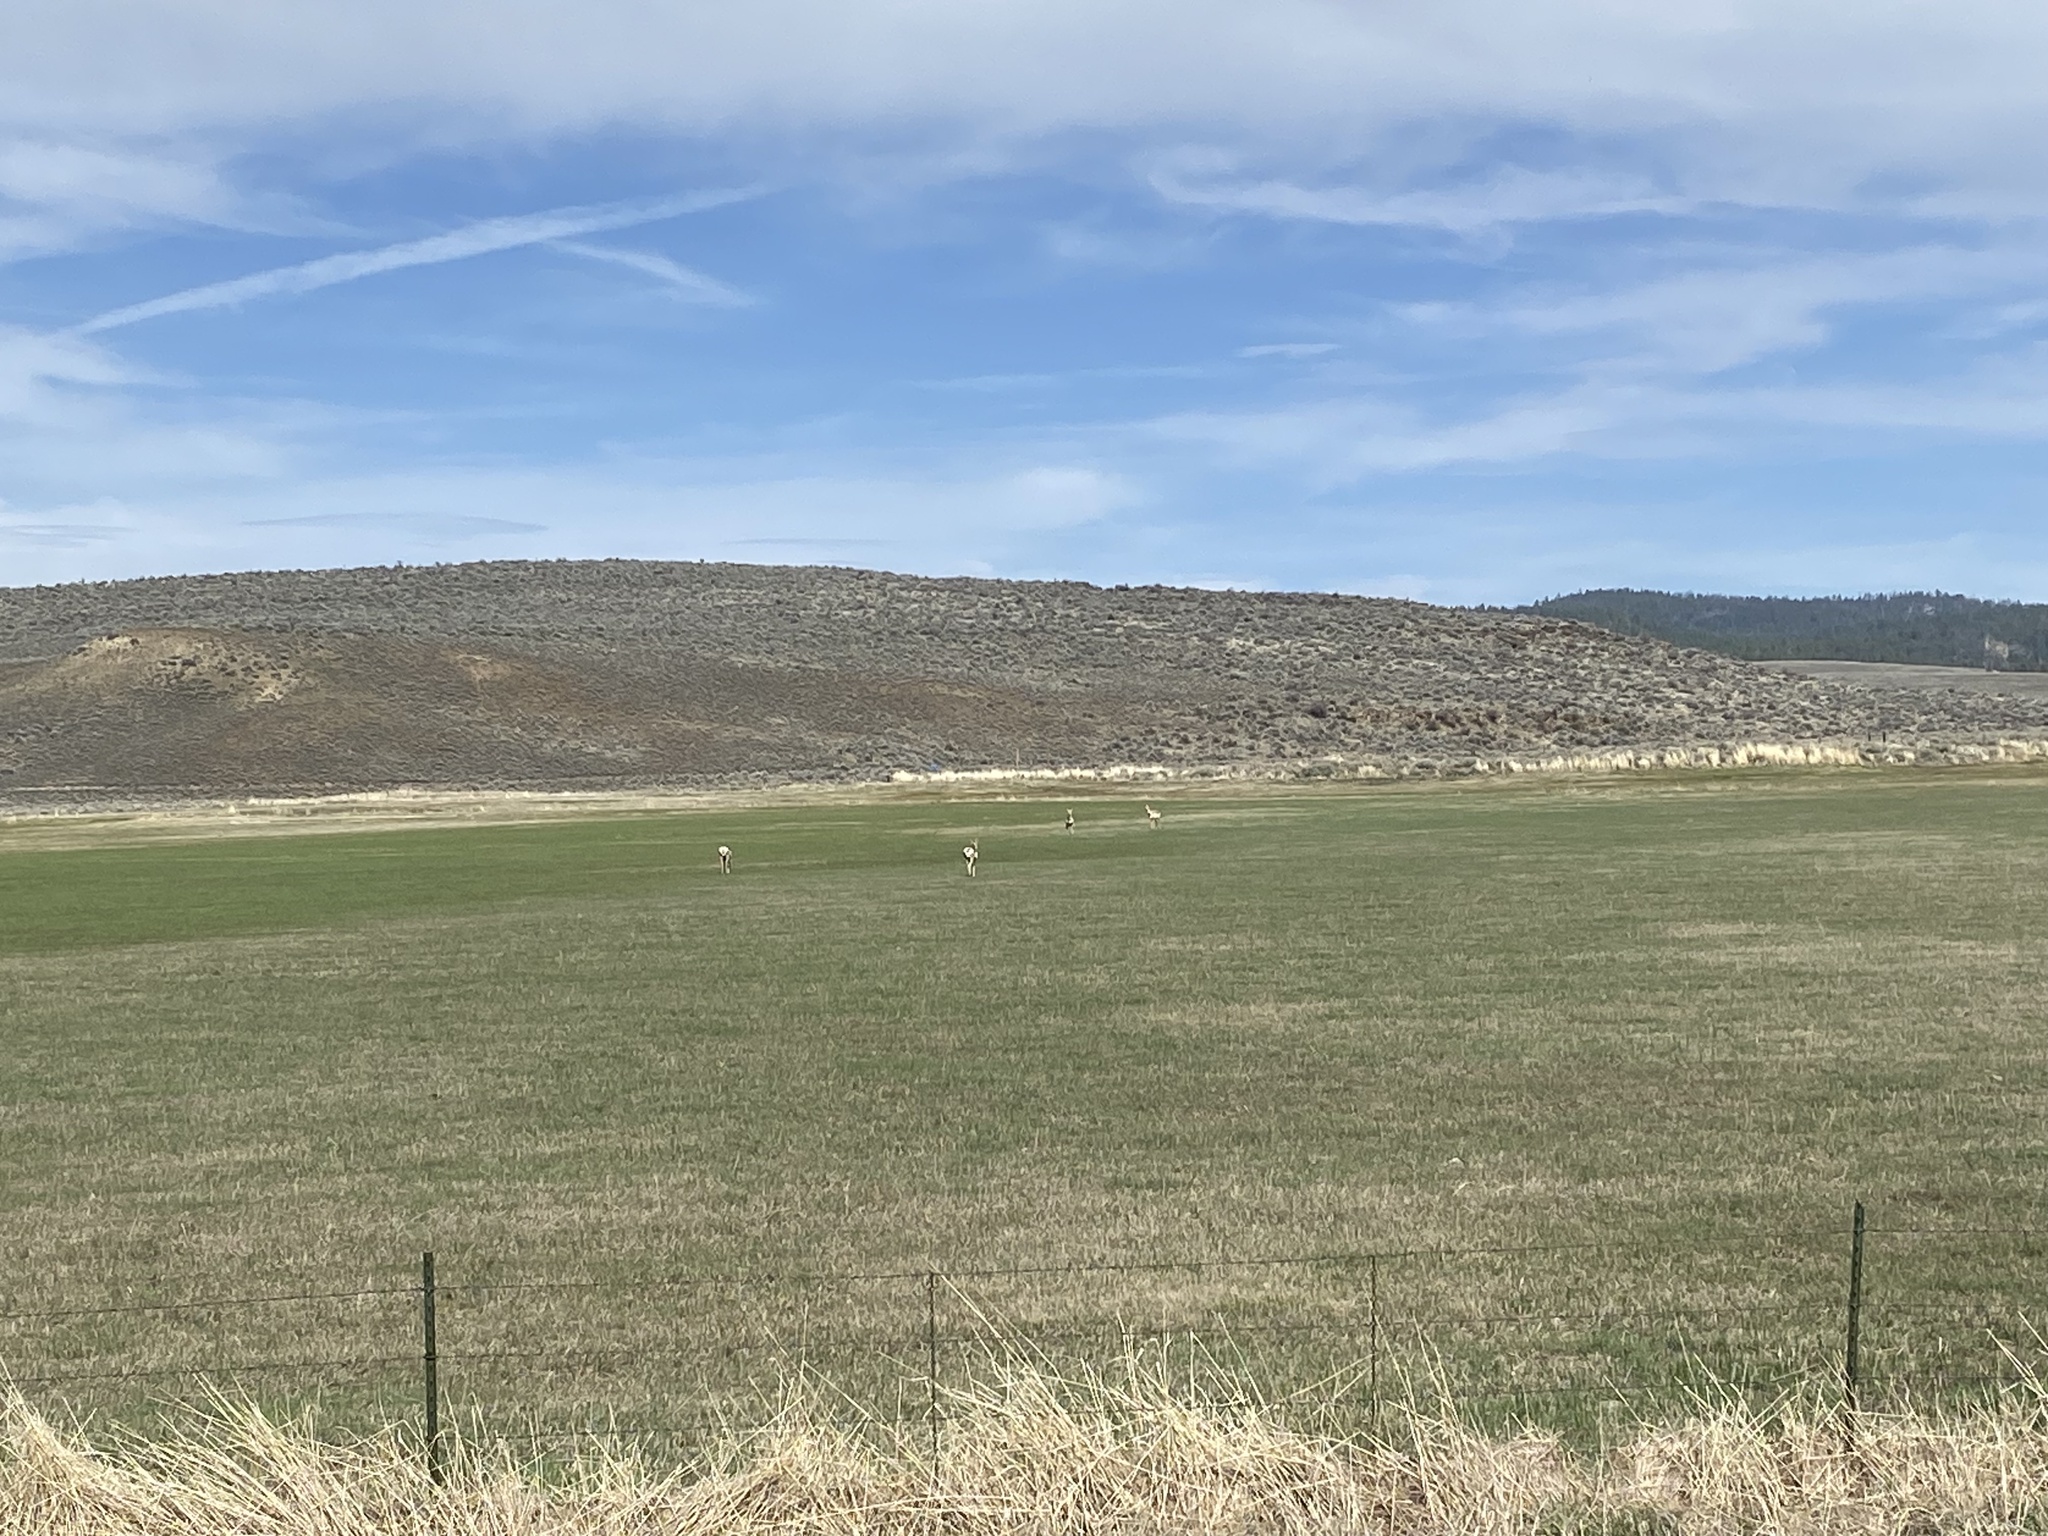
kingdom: Animalia
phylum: Chordata
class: Mammalia
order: Artiodactyla
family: Antilocapridae
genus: Antilocapra
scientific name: Antilocapra americana
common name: Pronghorn
